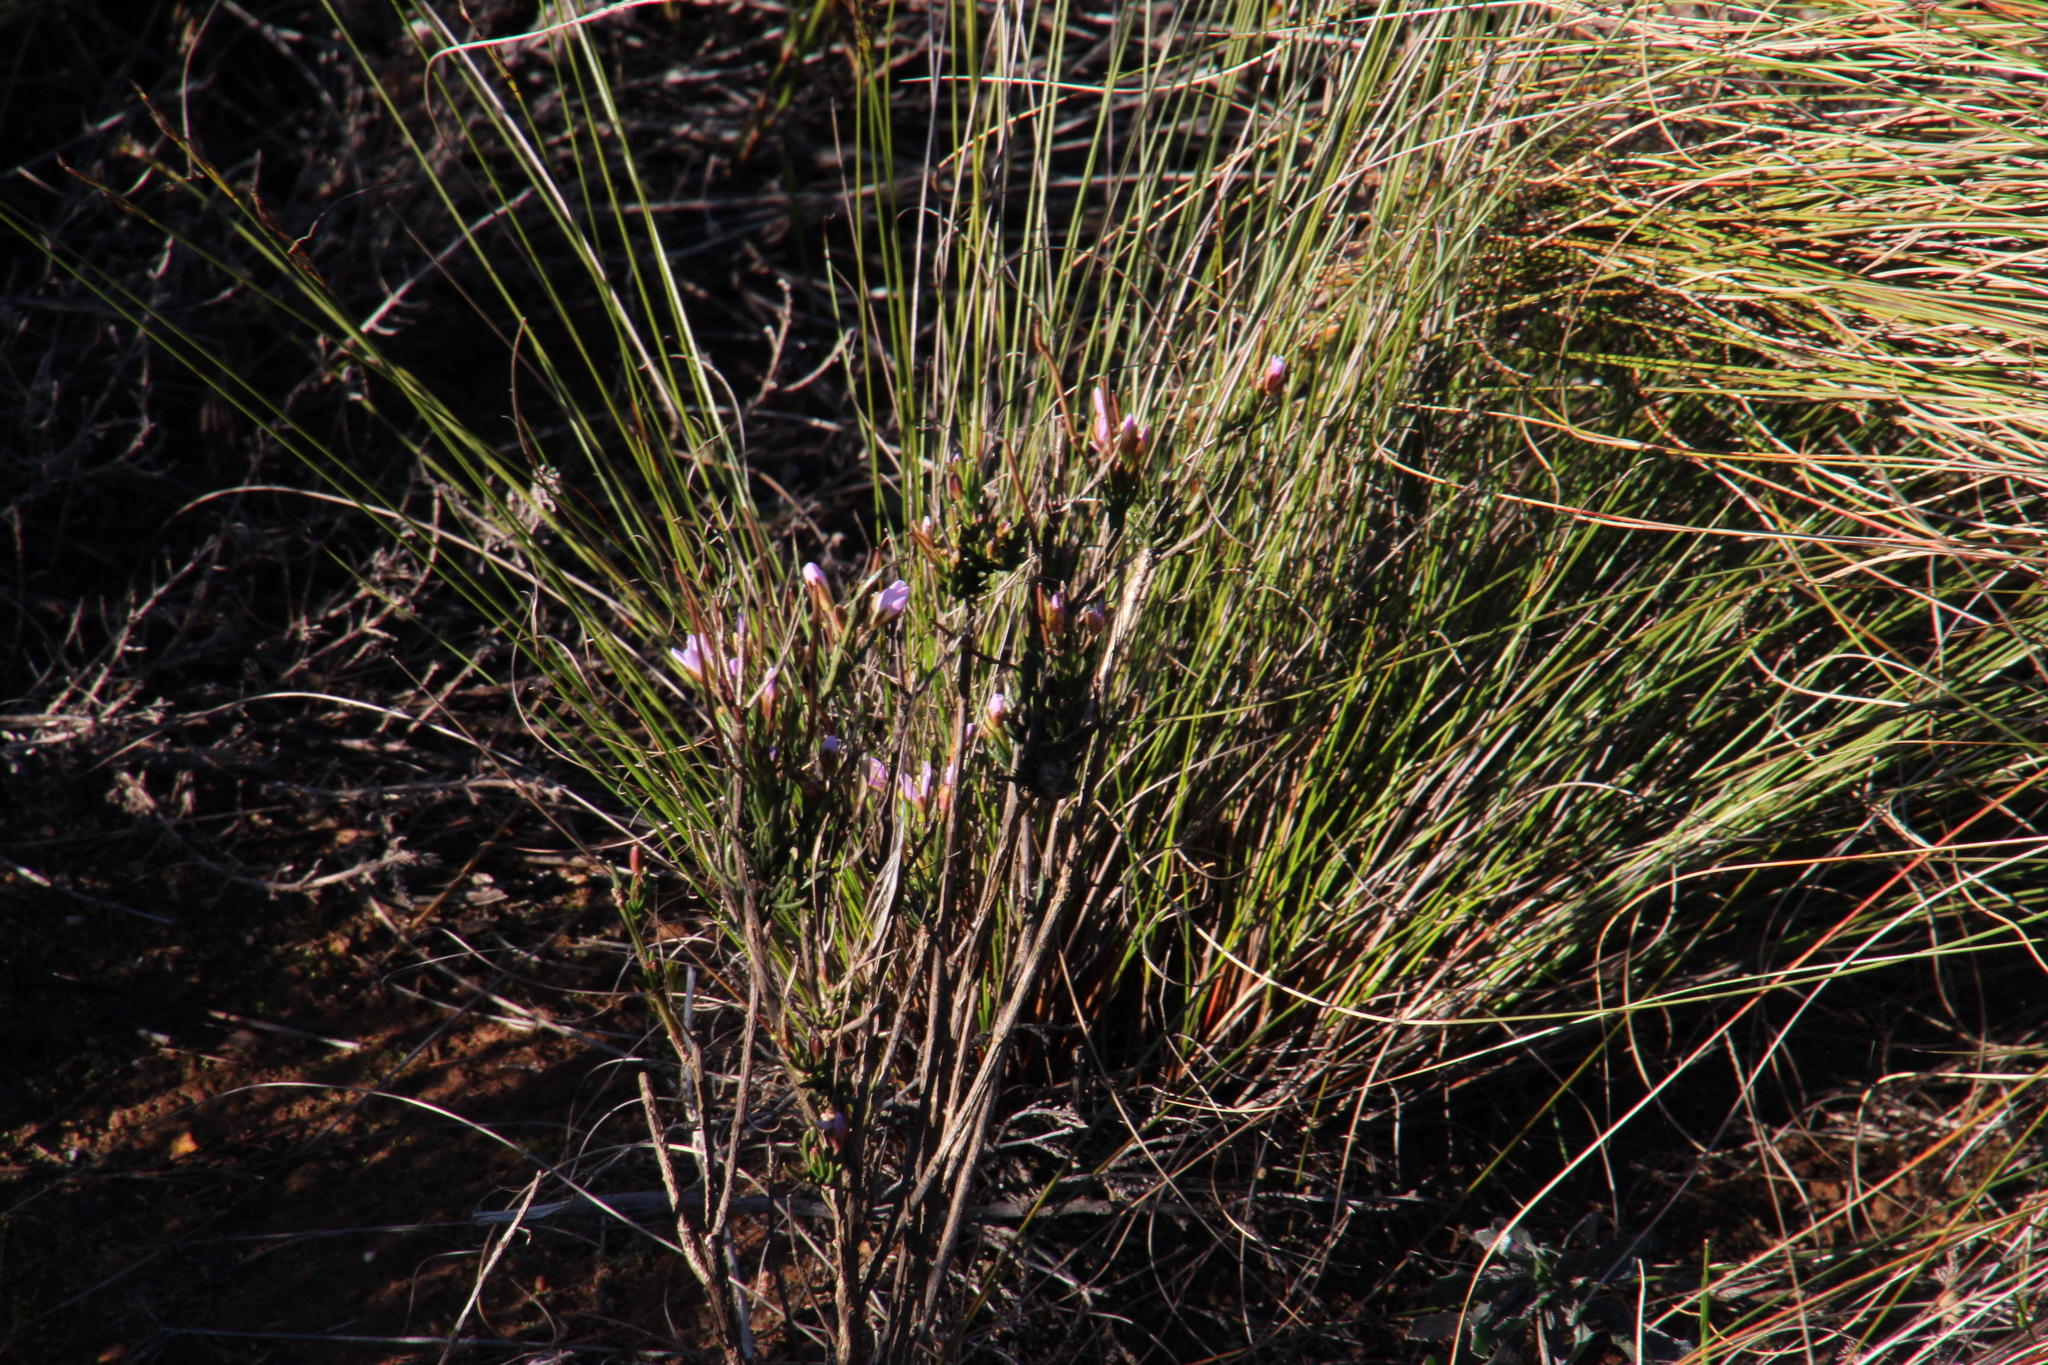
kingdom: Plantae
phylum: Tracheophyta
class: Magnoliopsida
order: Brassicales
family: Brassicaceae
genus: Heliophila
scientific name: Heliophila scoparia
